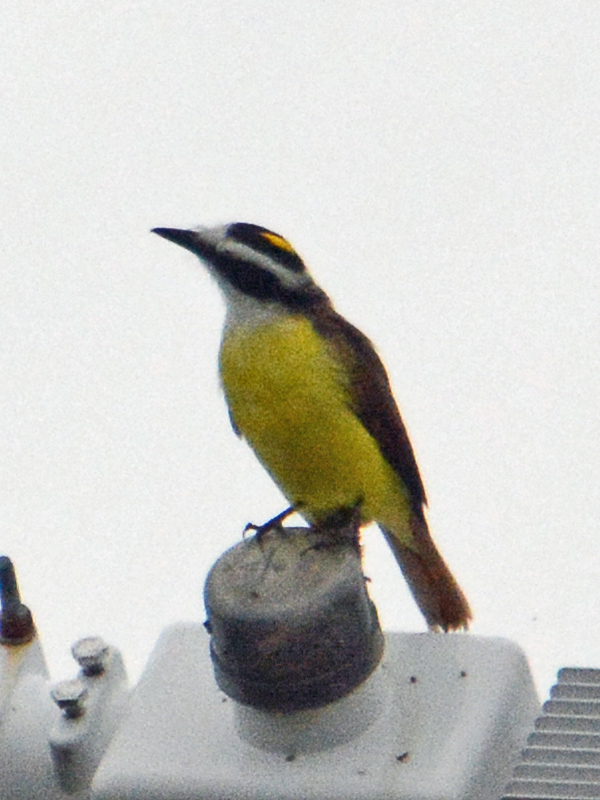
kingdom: Animalia
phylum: Chordata
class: Aves
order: Passeriformes
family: Tyrannidae
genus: Pitangus
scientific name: Pitangus sulphuratus
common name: Great kiskadee
